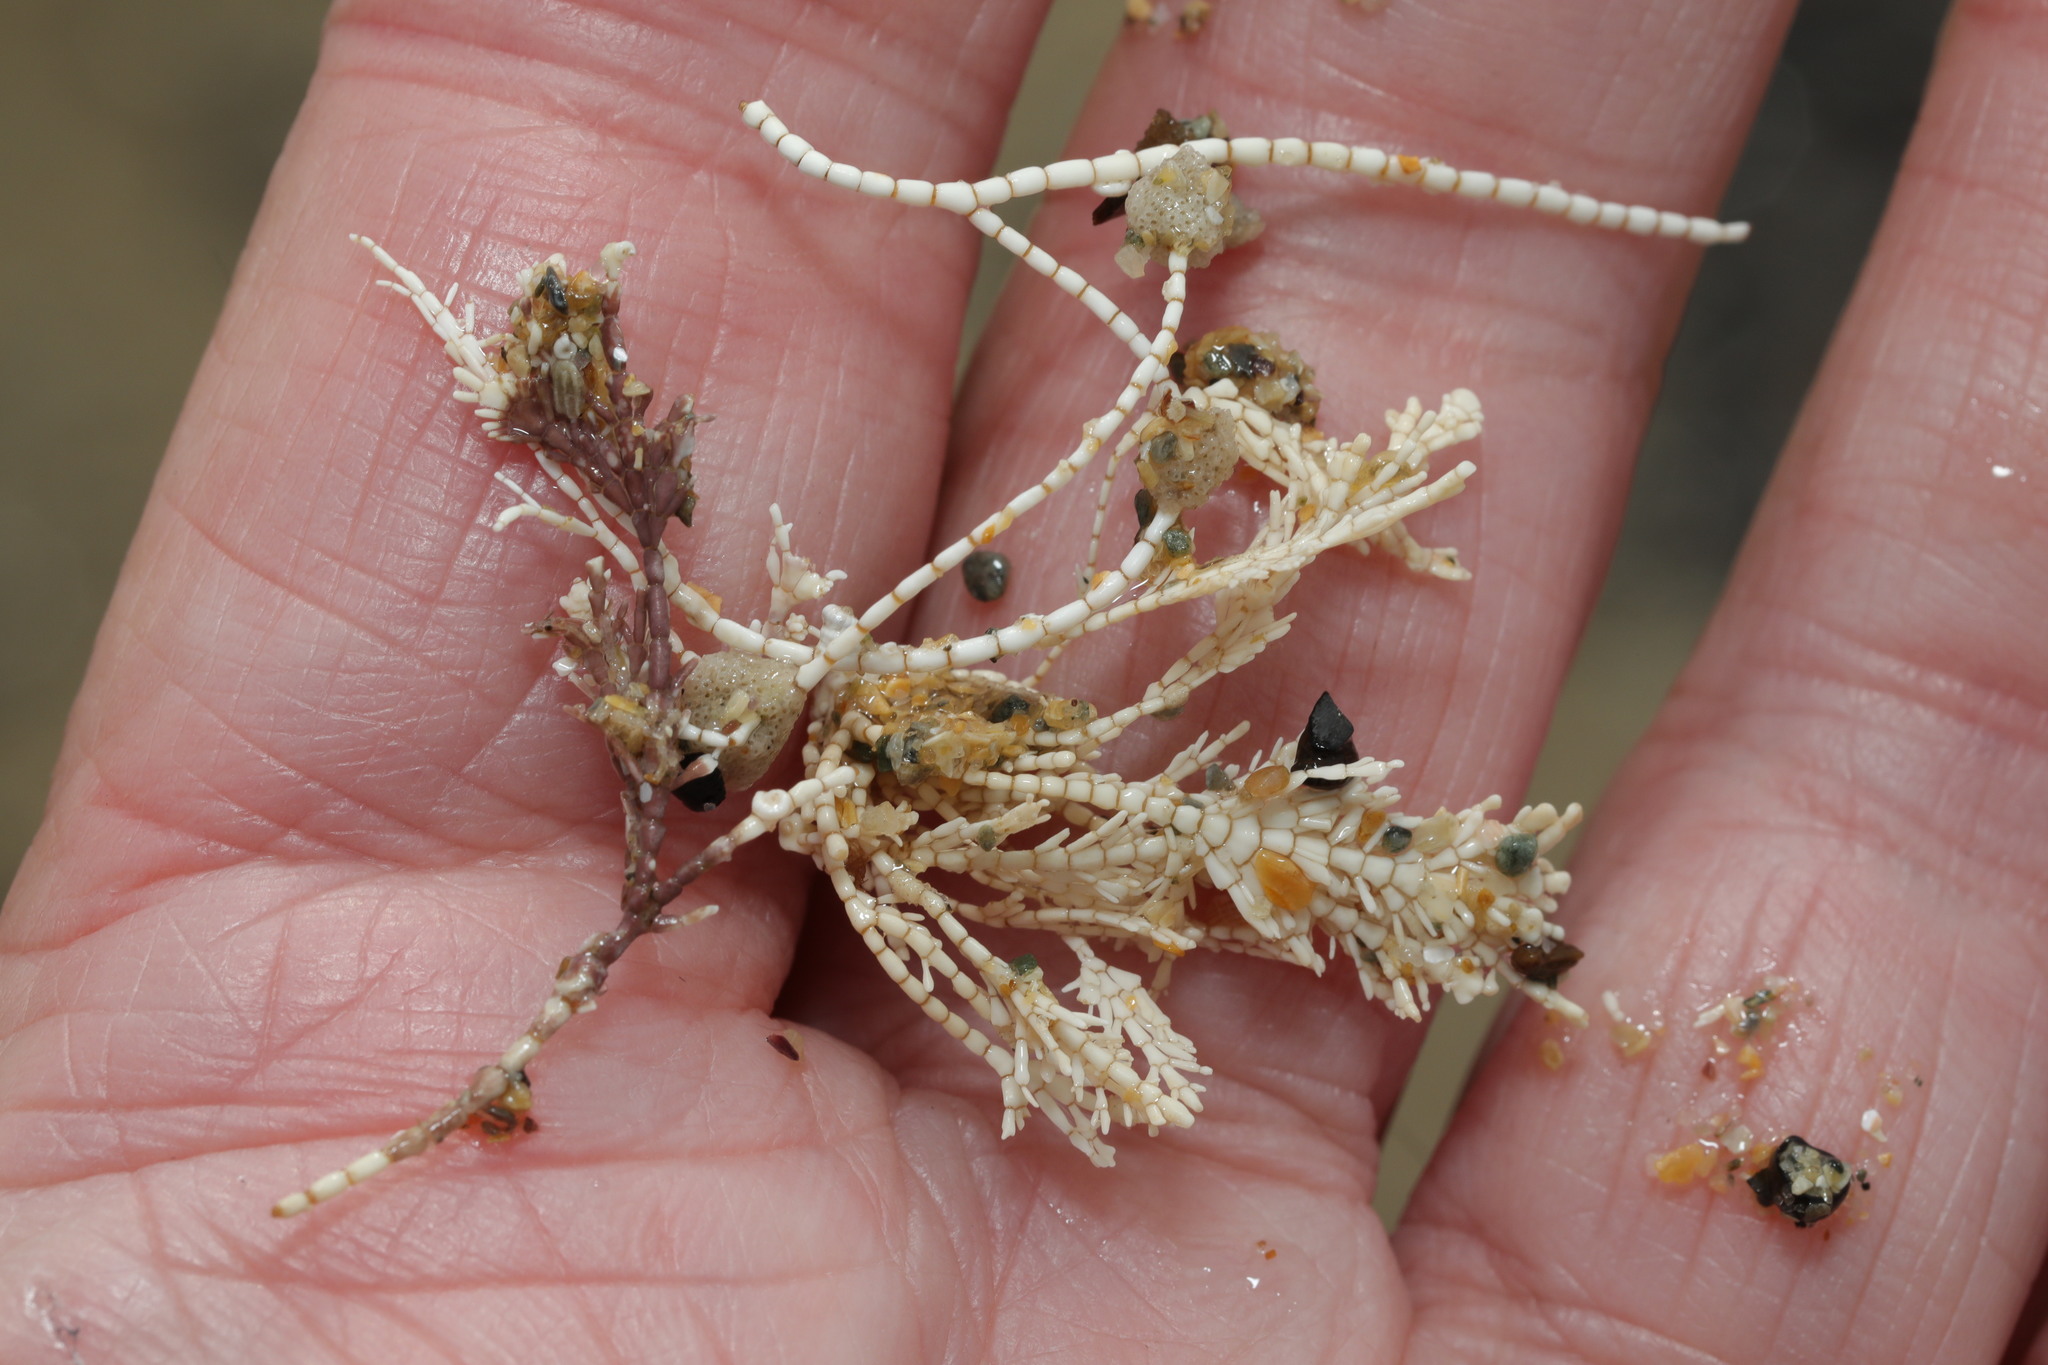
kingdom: Plantae
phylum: Rhodophyta
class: Florideophyceae
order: Corallinales
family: Corallinaceae
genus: Corallina
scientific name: Corallina officinalis
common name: Coral weed
